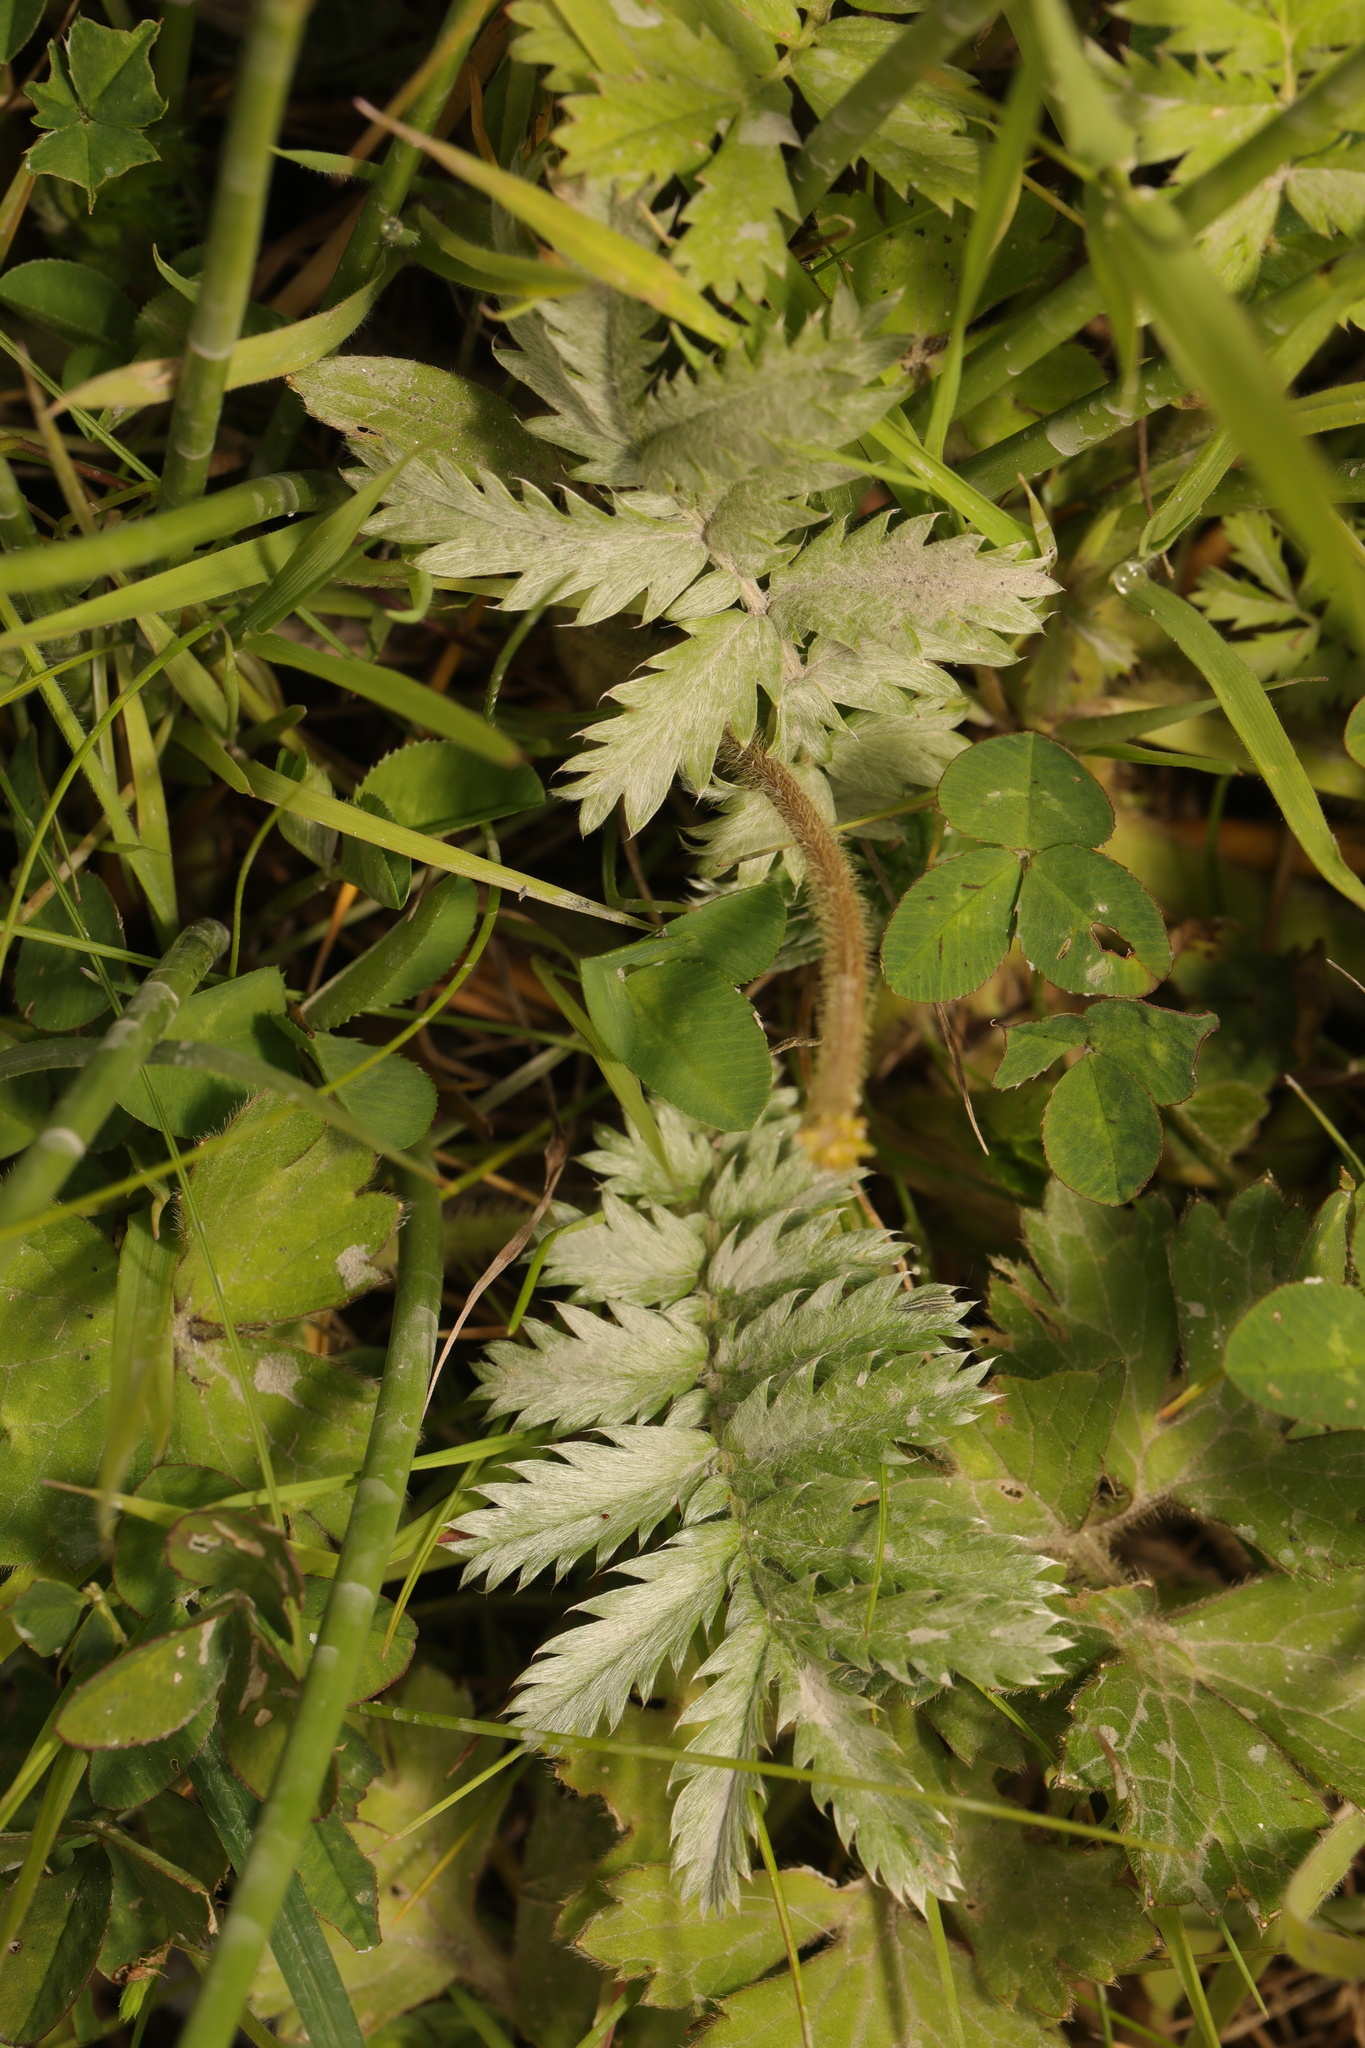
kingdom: Plantae
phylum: Tracheophyta
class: Magnoliopsida
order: Rosales
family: Rosaceae
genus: Argentina
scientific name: Argentina anserina
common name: Common silverweed
